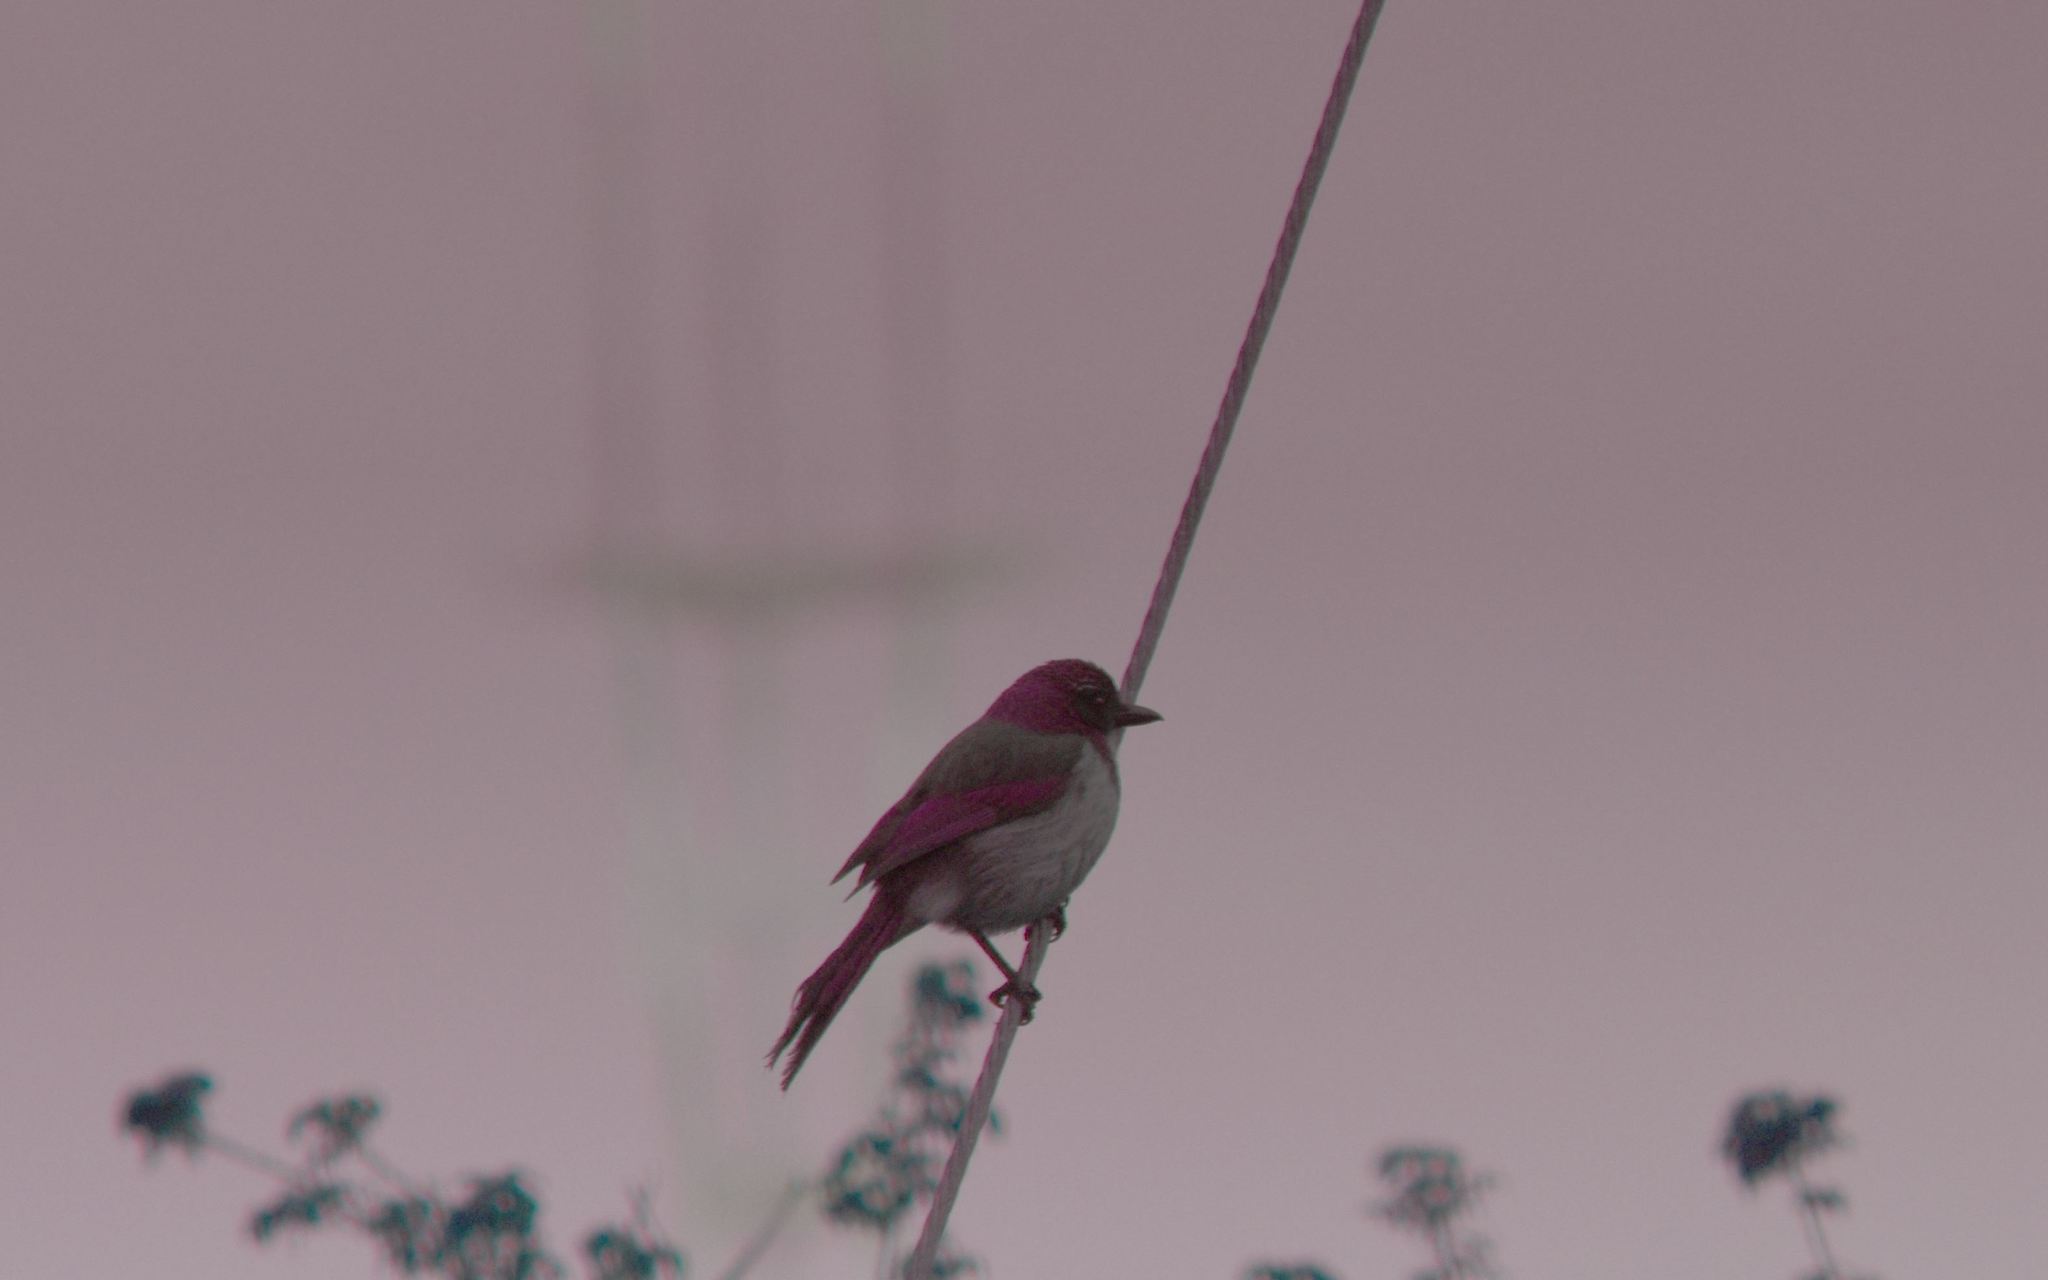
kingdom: Animalia
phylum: Chordata
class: Aves
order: Passeriformes
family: Corvidae
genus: Aphelocoma
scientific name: Aphelocoma californica
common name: California scrub-jay
